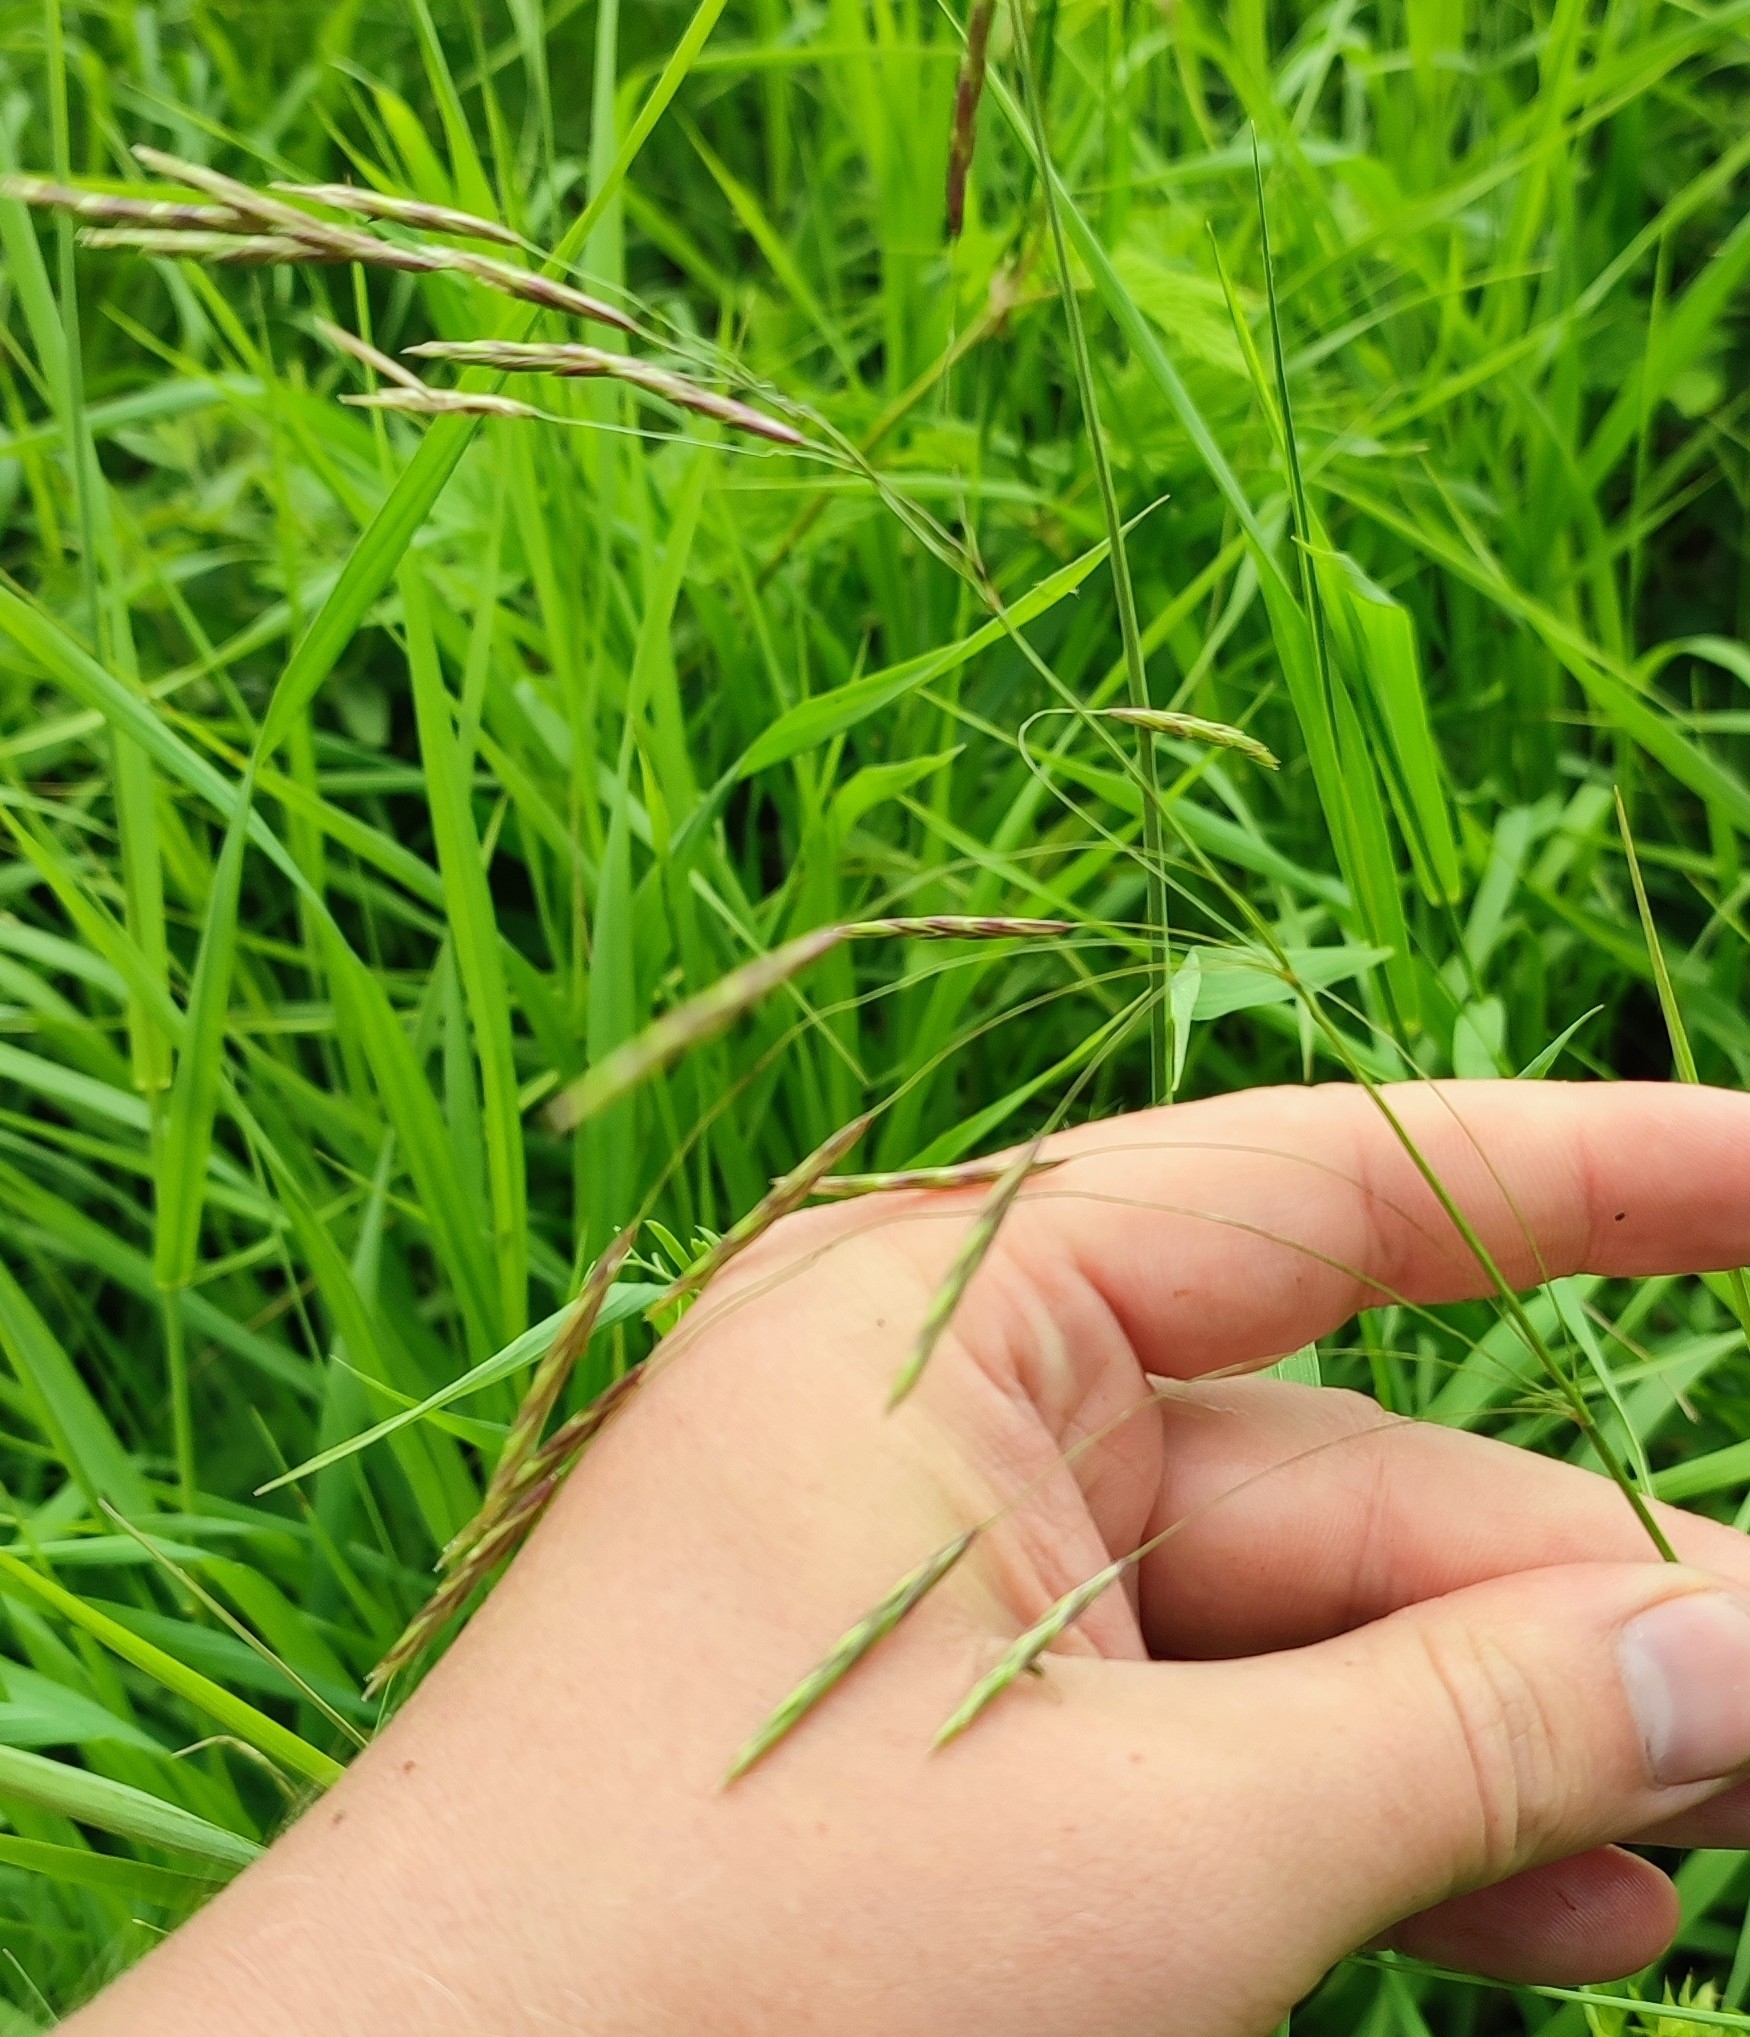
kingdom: Plantae
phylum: Tracheophyta
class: Liliopsida
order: Poales
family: Poaceae
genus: Bromus
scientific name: Bromus inermis
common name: Smooth brome
